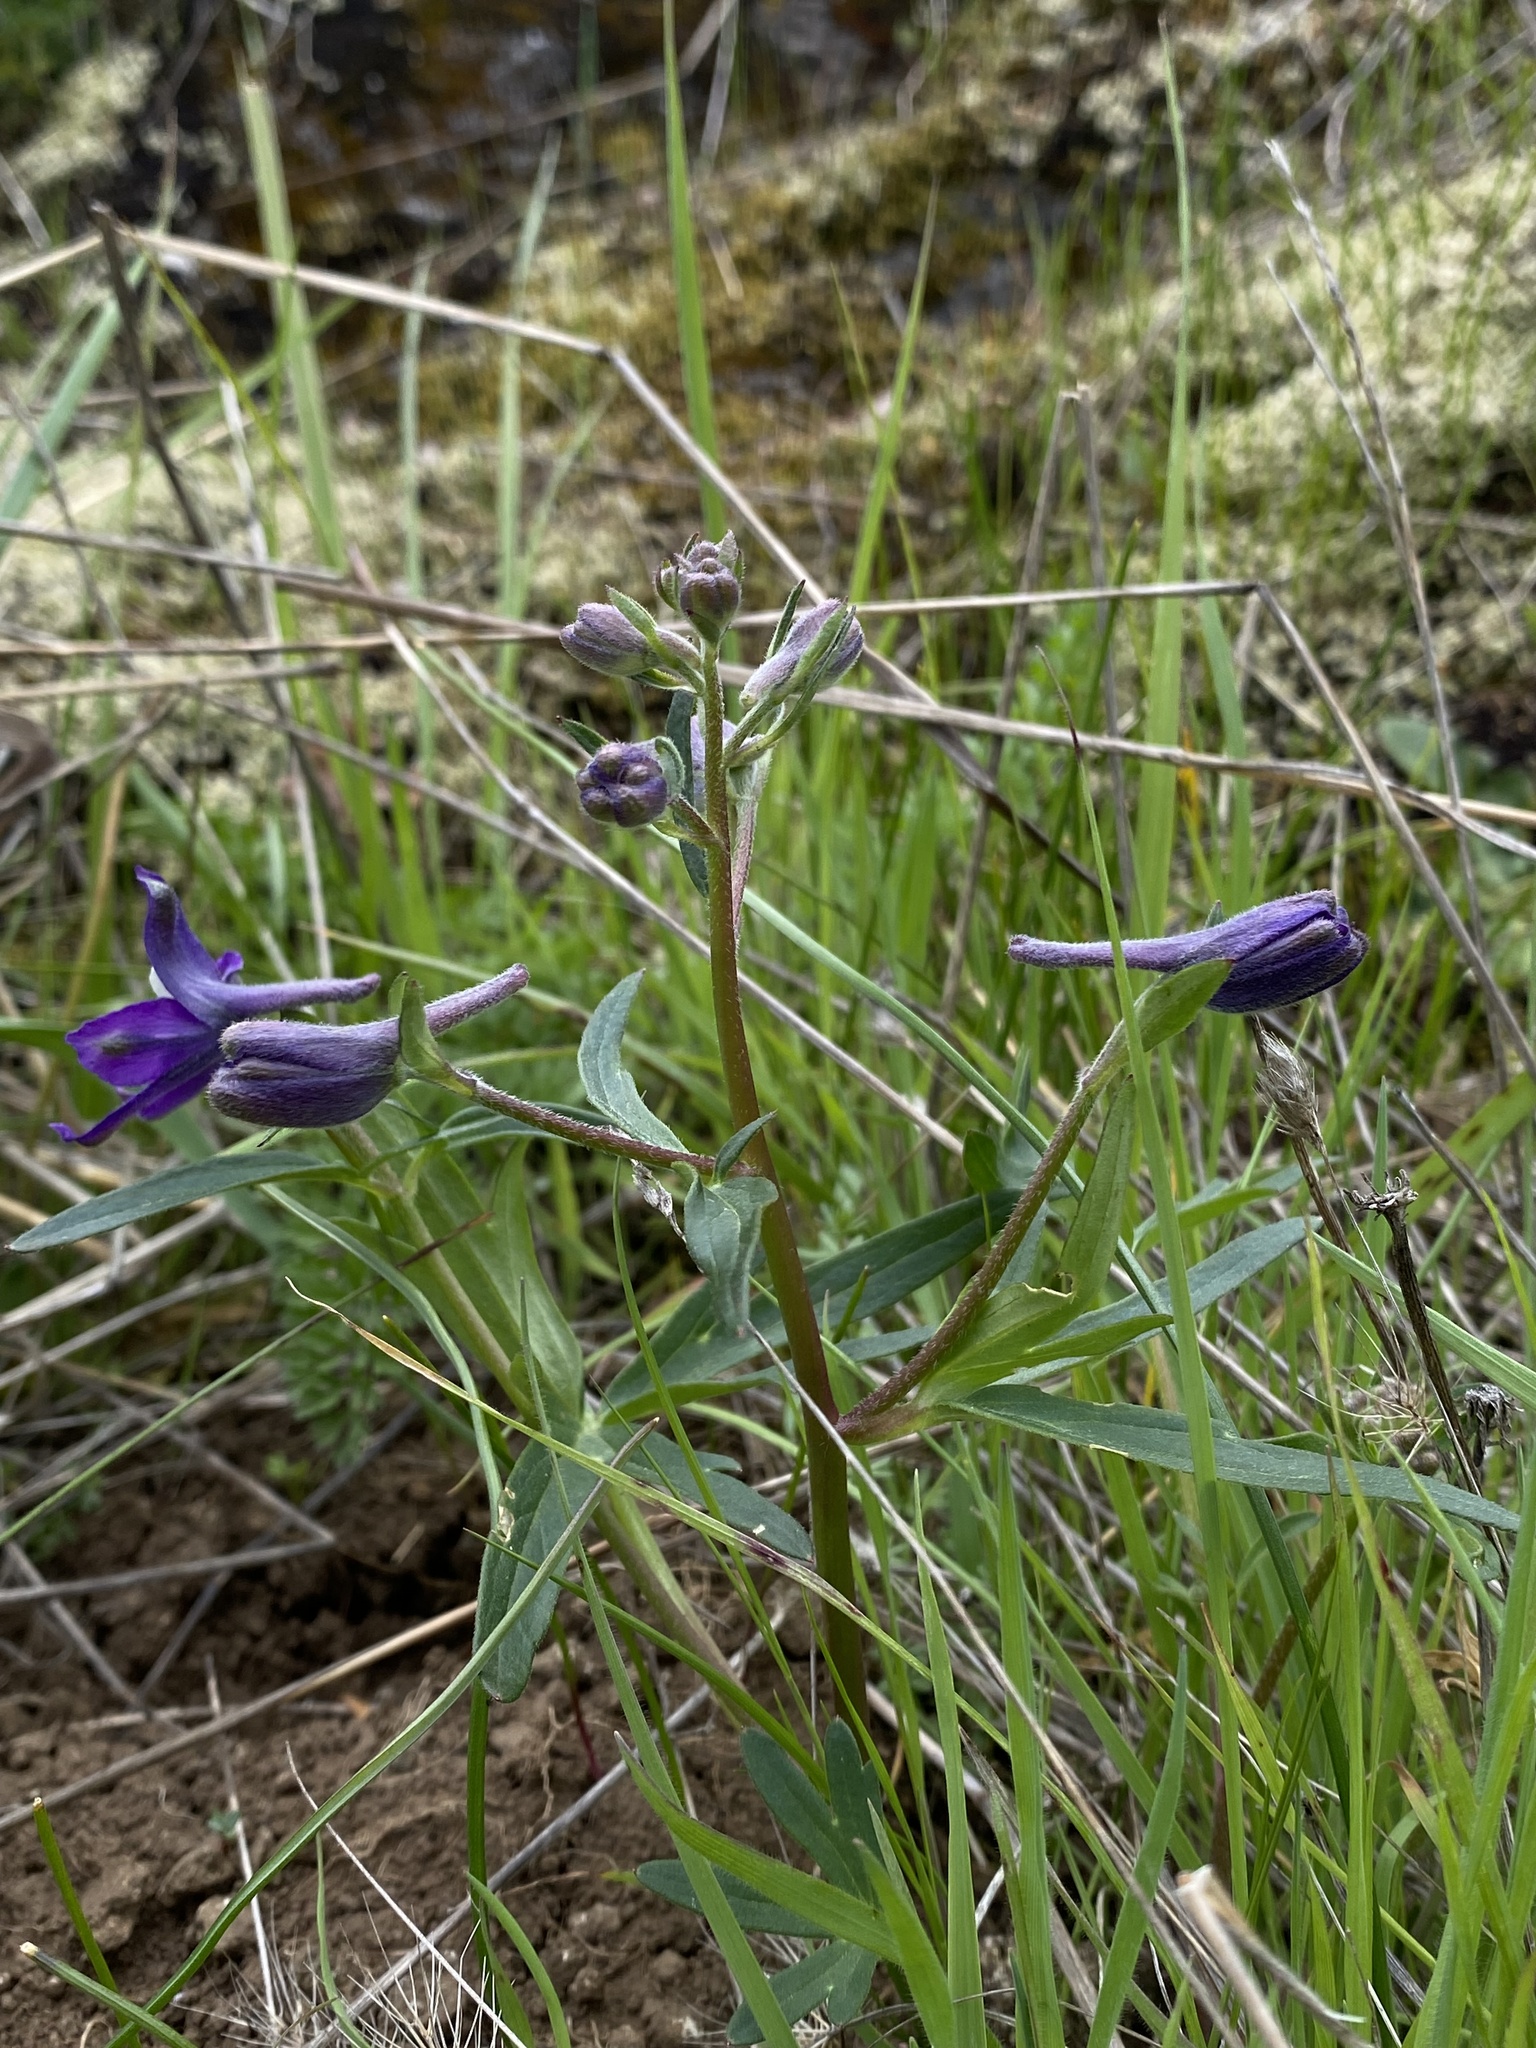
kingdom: Plantae
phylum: Tracheophyta
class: Magnoliopsida
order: Ranunculales
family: Ranunculaceae
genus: Delphinium
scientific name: Delphinium menziesii
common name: Menzies's larkspur
